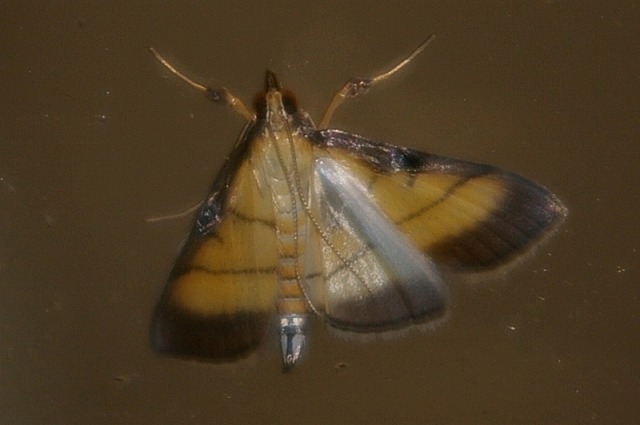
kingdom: Animalia
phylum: Arthropoda
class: Insecta
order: Lepidoptera
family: Crambidae
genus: Cnaphalocrocis
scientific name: Cnaphalocrocis medinalis
